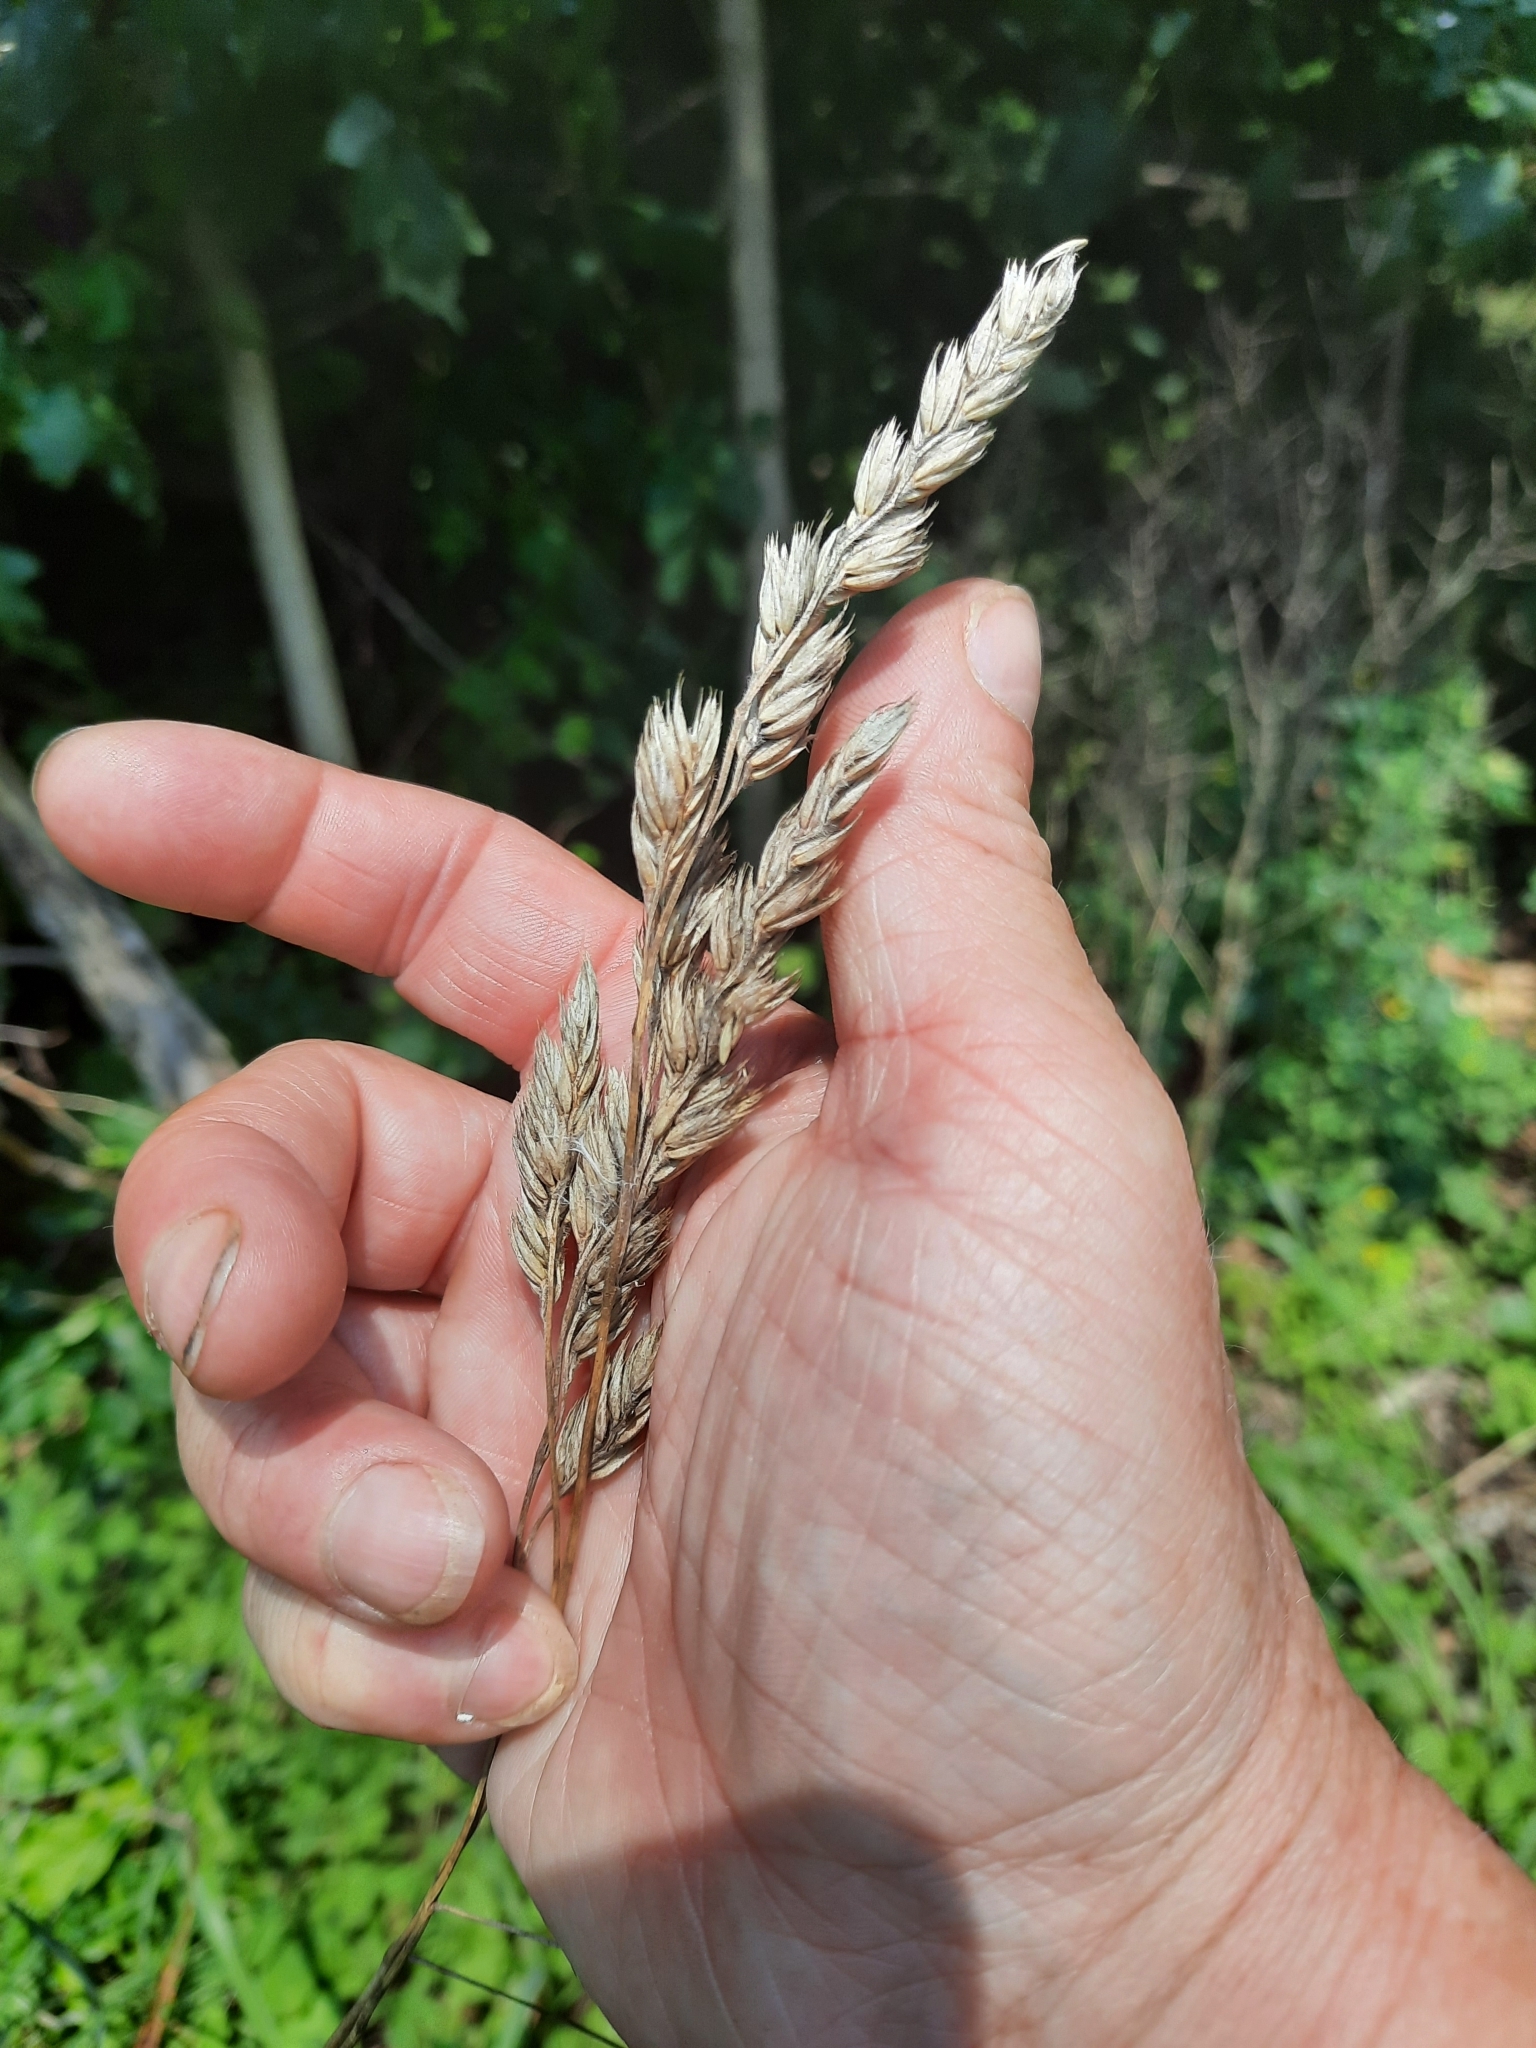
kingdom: Plantae
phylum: Tracheophyta
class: Liliopsida
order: Poales
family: Poaceae
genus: Dactylis
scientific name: Dactylis glomerata
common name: Orchardgrass
